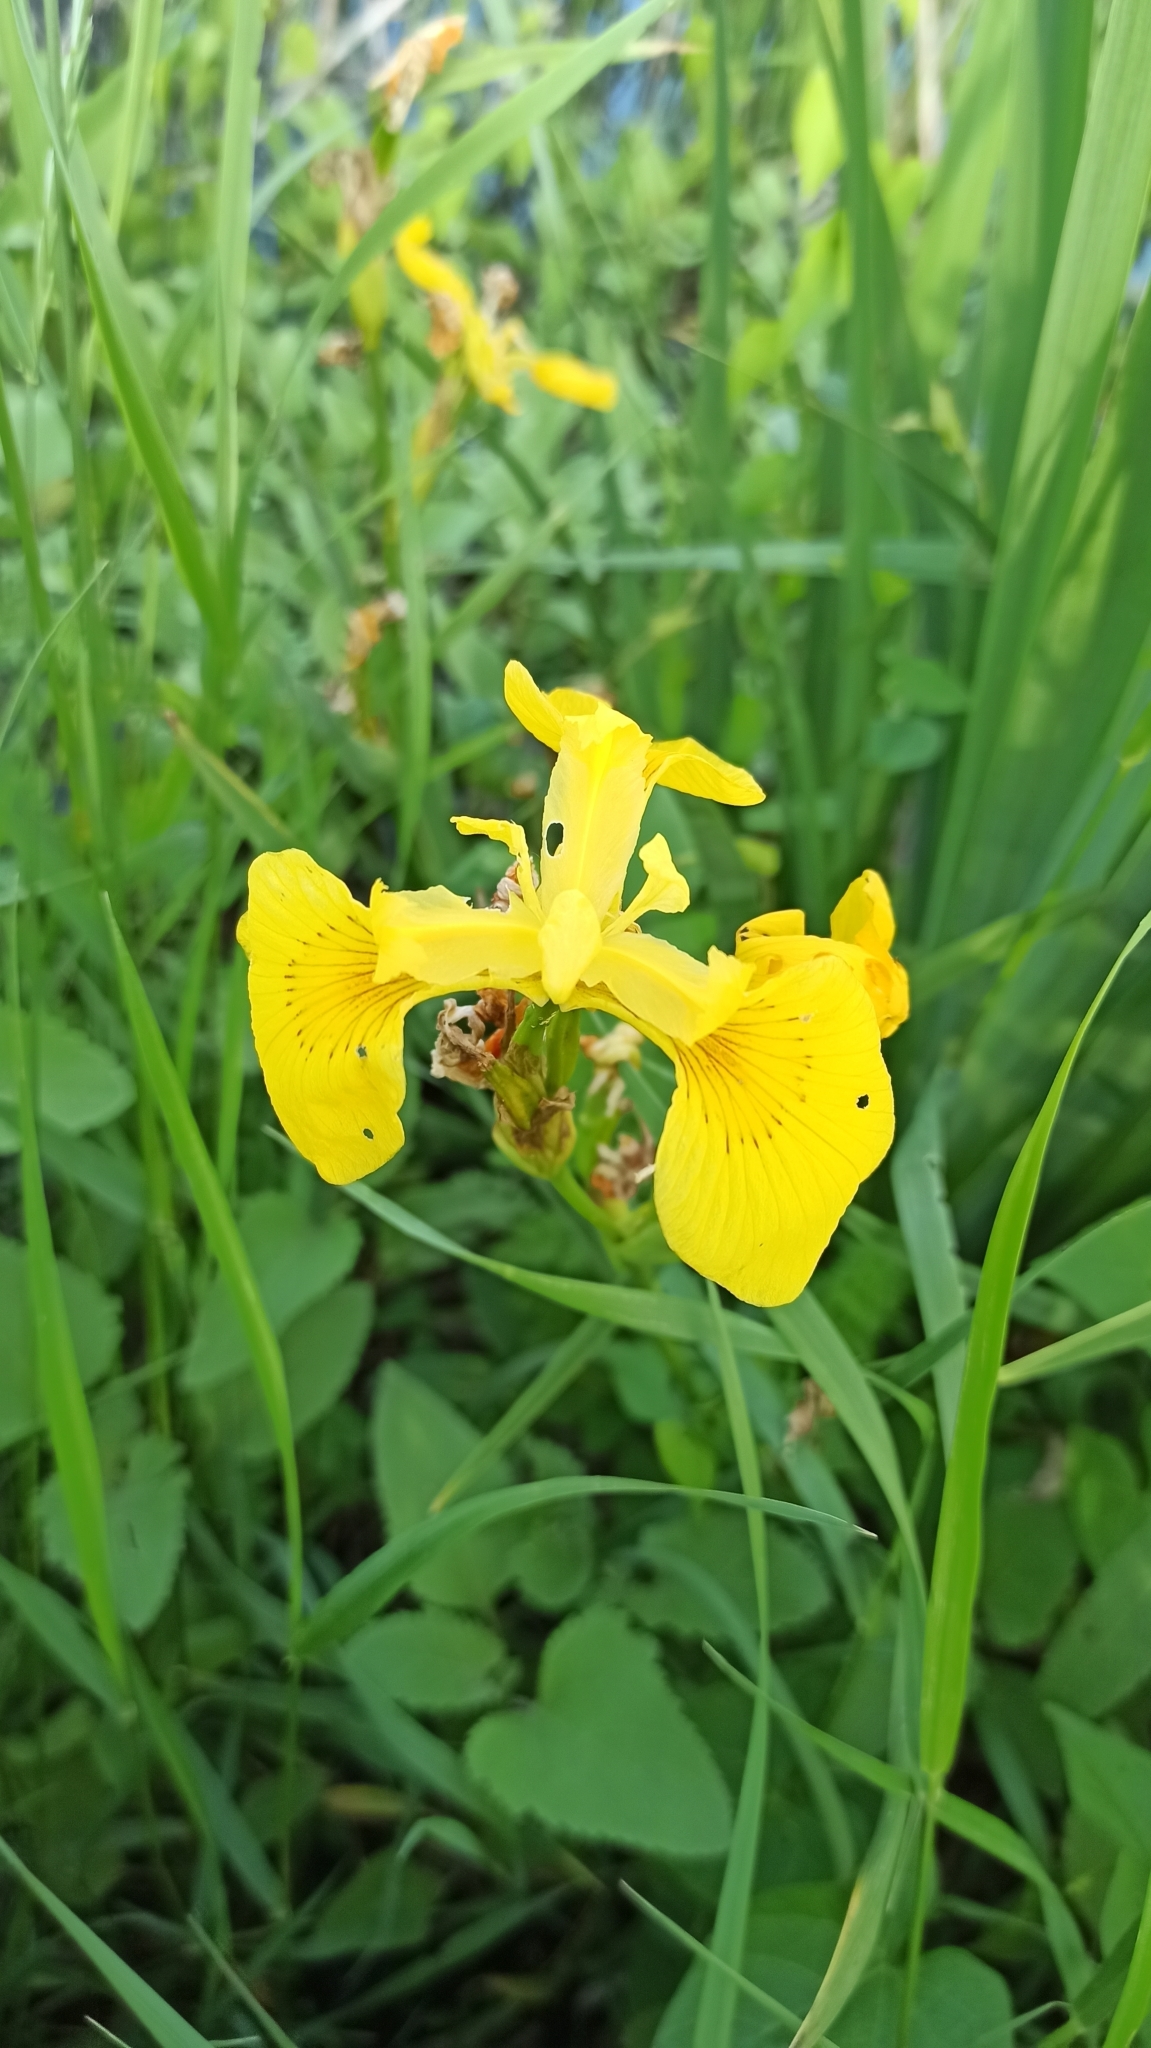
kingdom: Plantae
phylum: Tracheophyta
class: Liliopsida
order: Asparagales
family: Iridaceae
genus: Iris
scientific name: Iris pseudacorus
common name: Yellow flag
